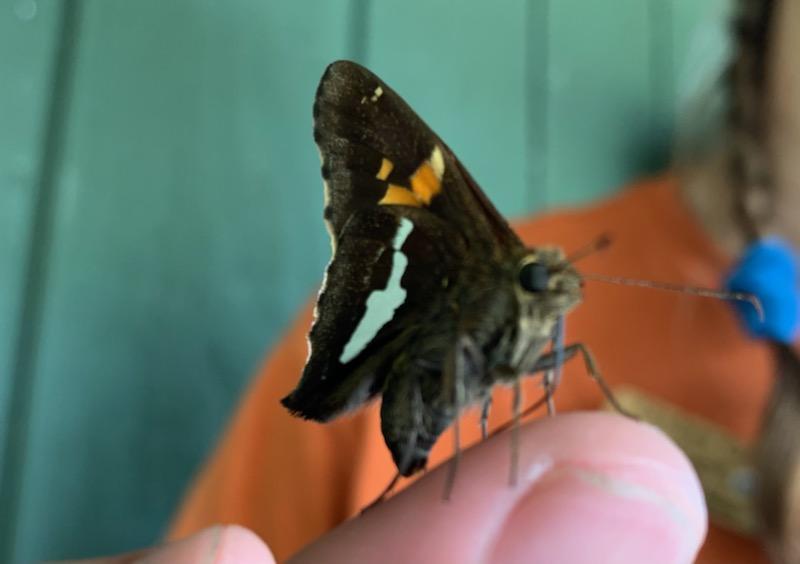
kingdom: Animalia
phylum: Arthropoda
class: Insecta
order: Lepidoptera
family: Hesperiidae
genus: Epargyreus
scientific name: Epargyreus clarus
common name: Silver-spotted skipper
